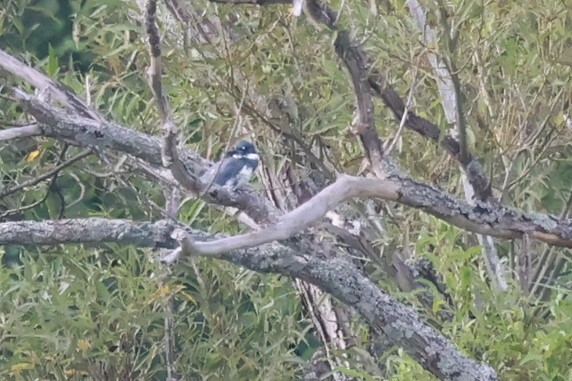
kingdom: Animalia
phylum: Chordata
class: Aves
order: Coraciiformes
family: Alcedinidae
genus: Megaceryle
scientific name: Megaceryle alcyon
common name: Belted kingfisher
